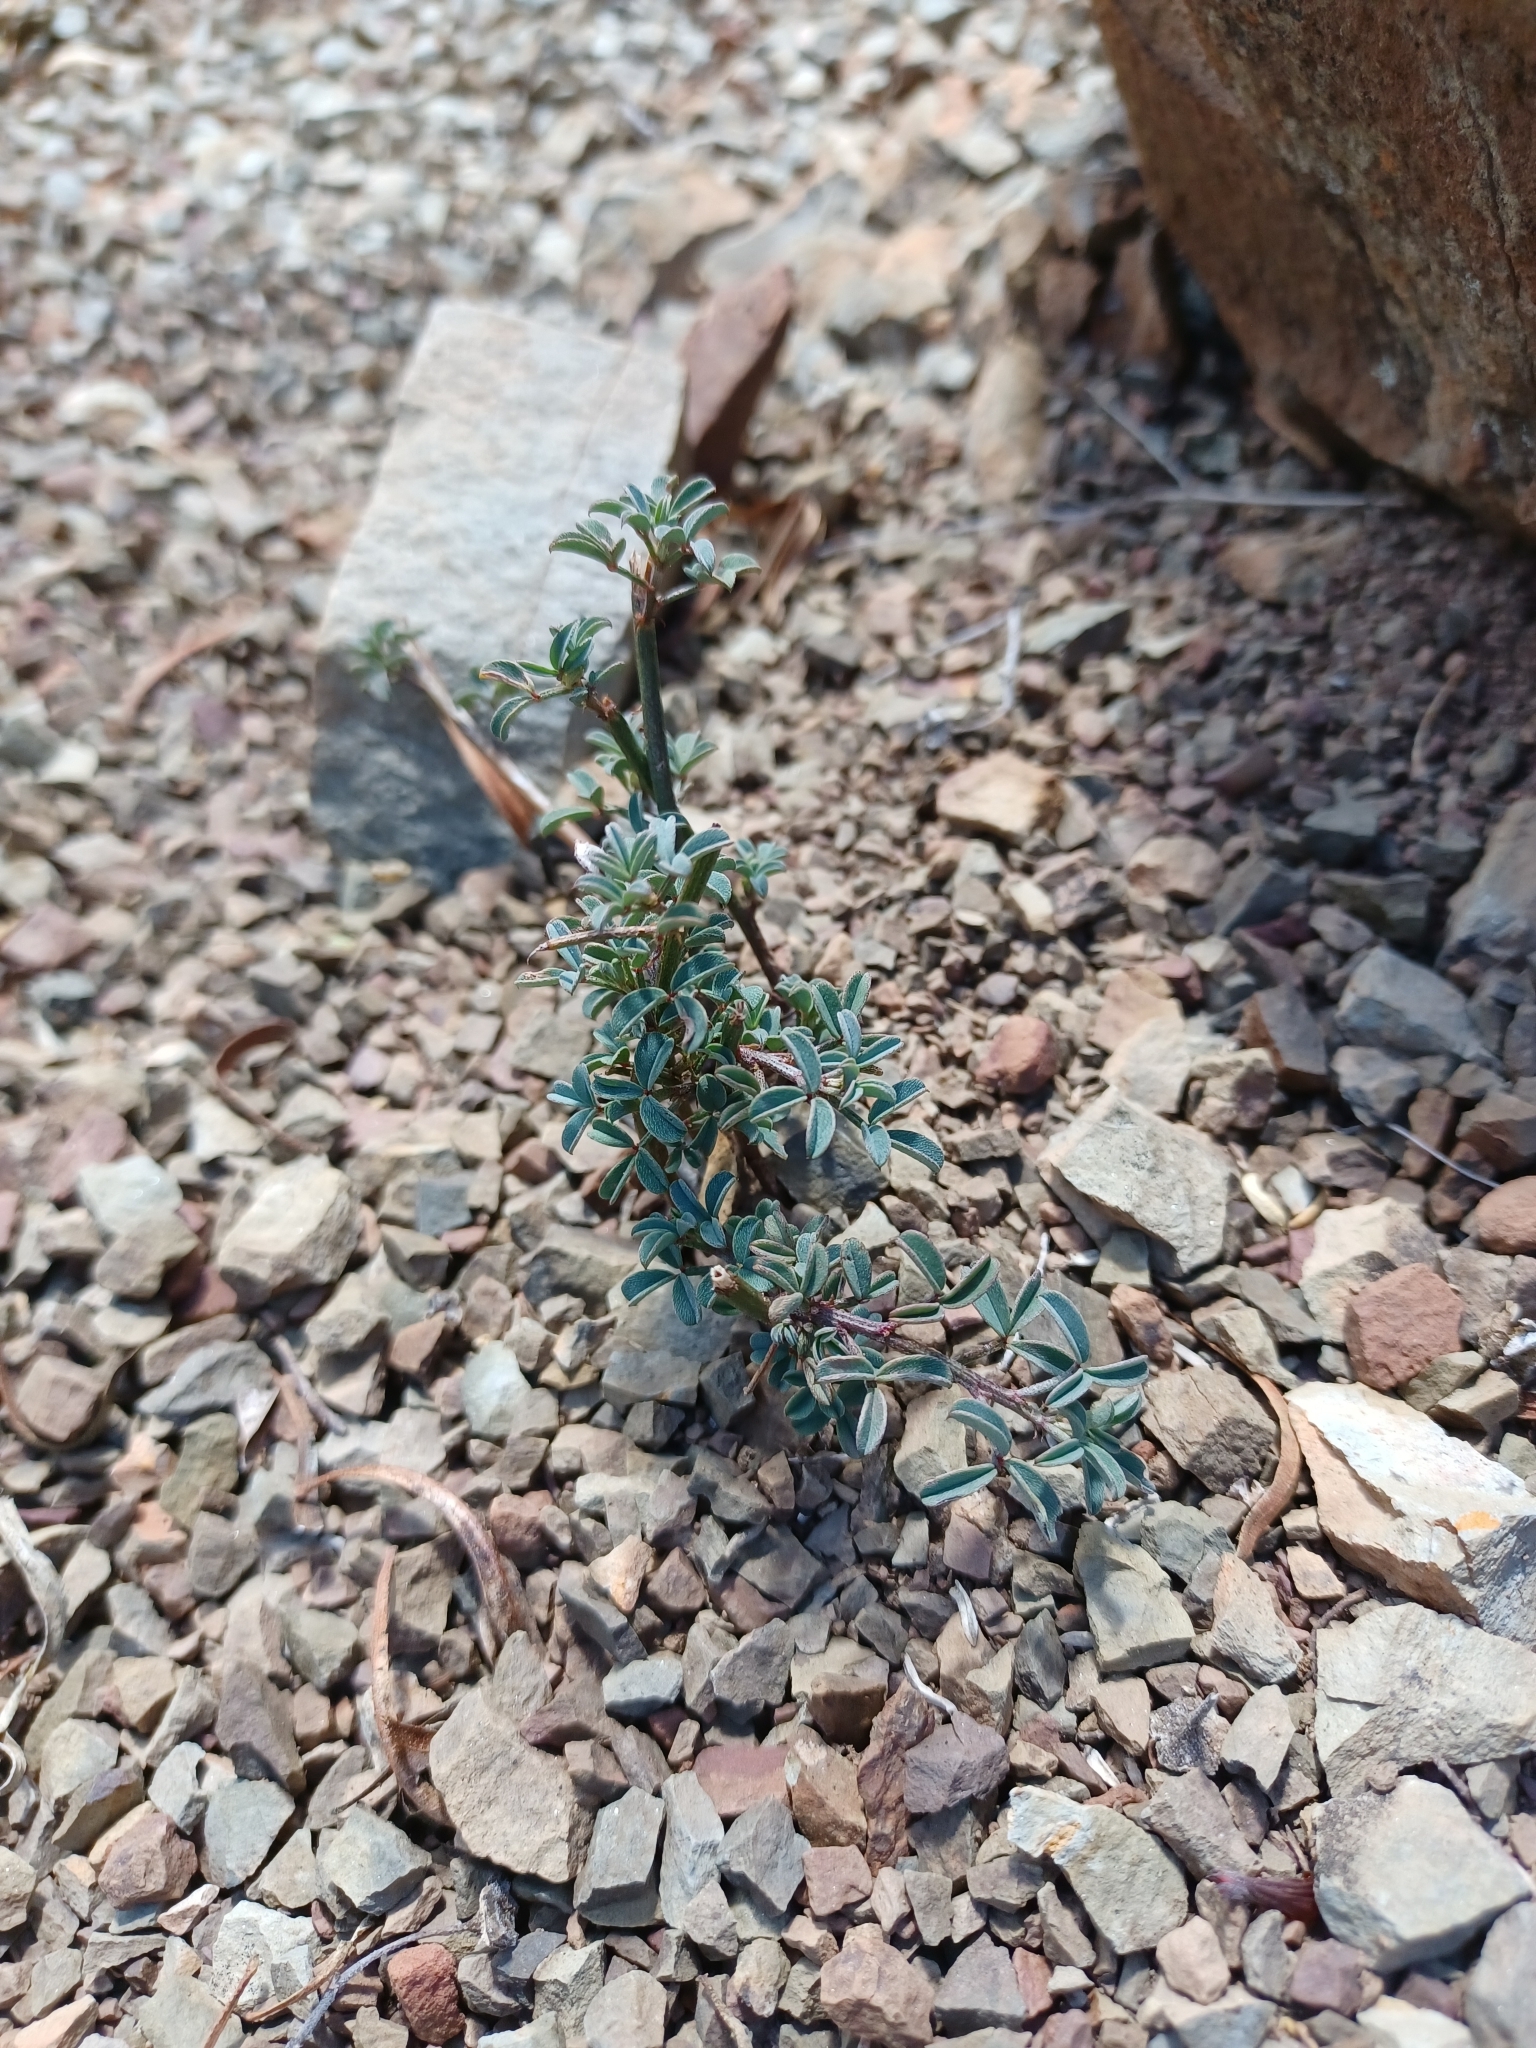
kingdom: Plantae
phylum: Tracheophyta
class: Magnoliopsida
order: Fabales
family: Fabaceae
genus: Indigofera
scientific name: Indigofera heterophylla
